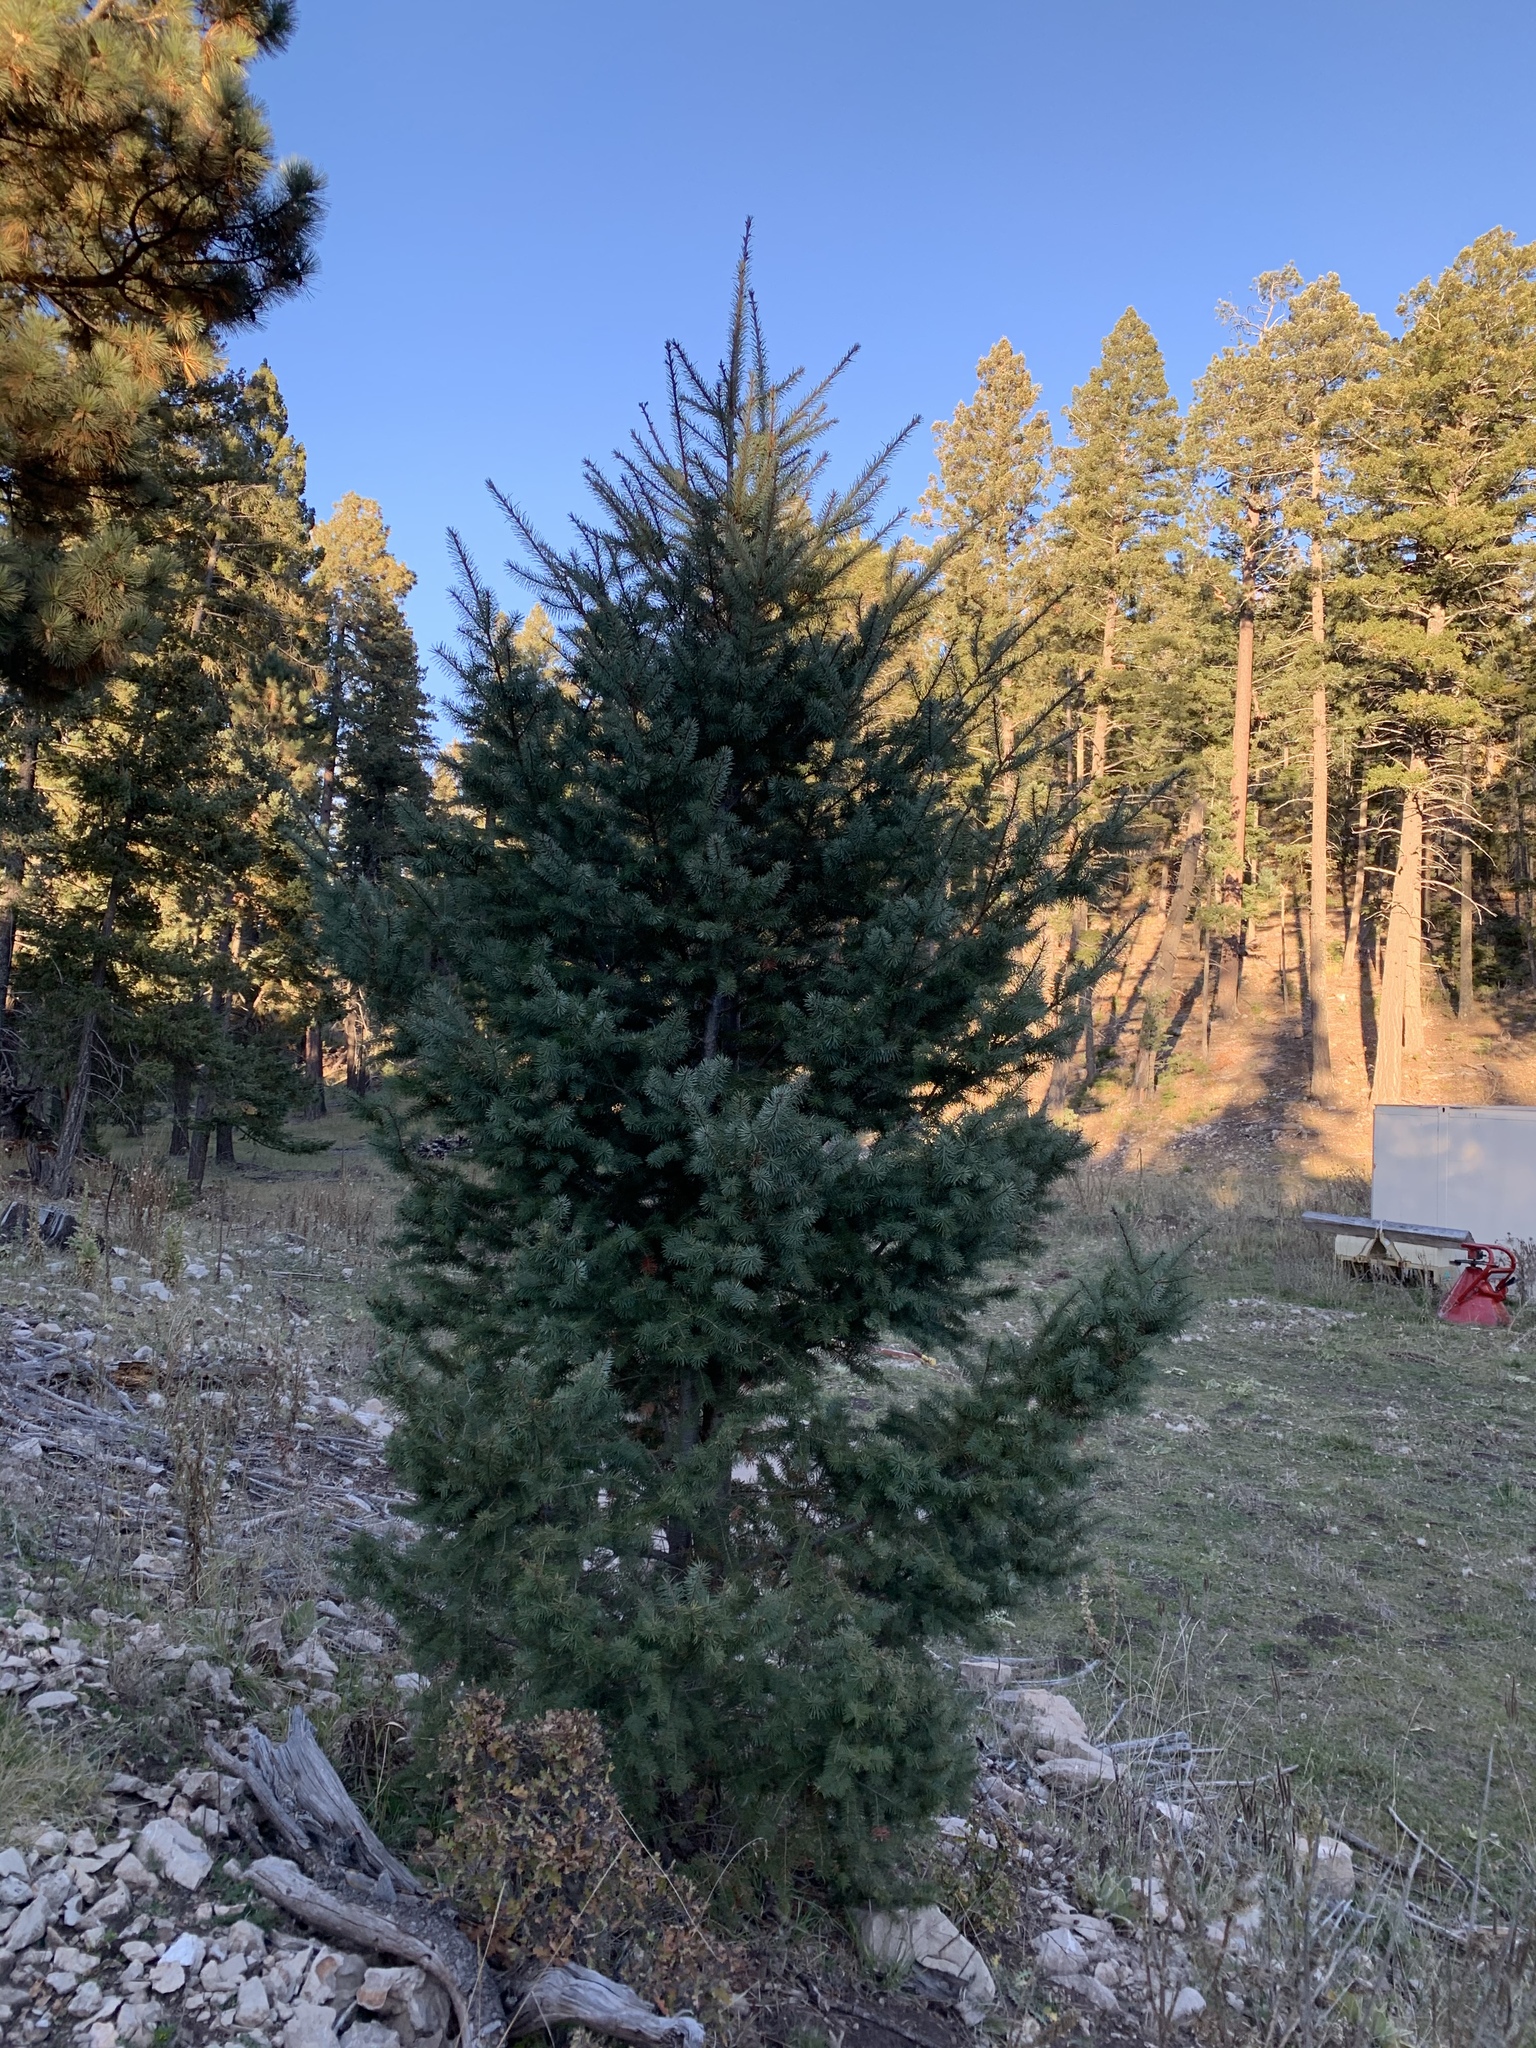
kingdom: Plantae
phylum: Tracheophyta
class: Pinopsida
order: Pinales
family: Pinaceae
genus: Pseudotsuga
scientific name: Pseudotsuga menziesii
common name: Douglas fir
